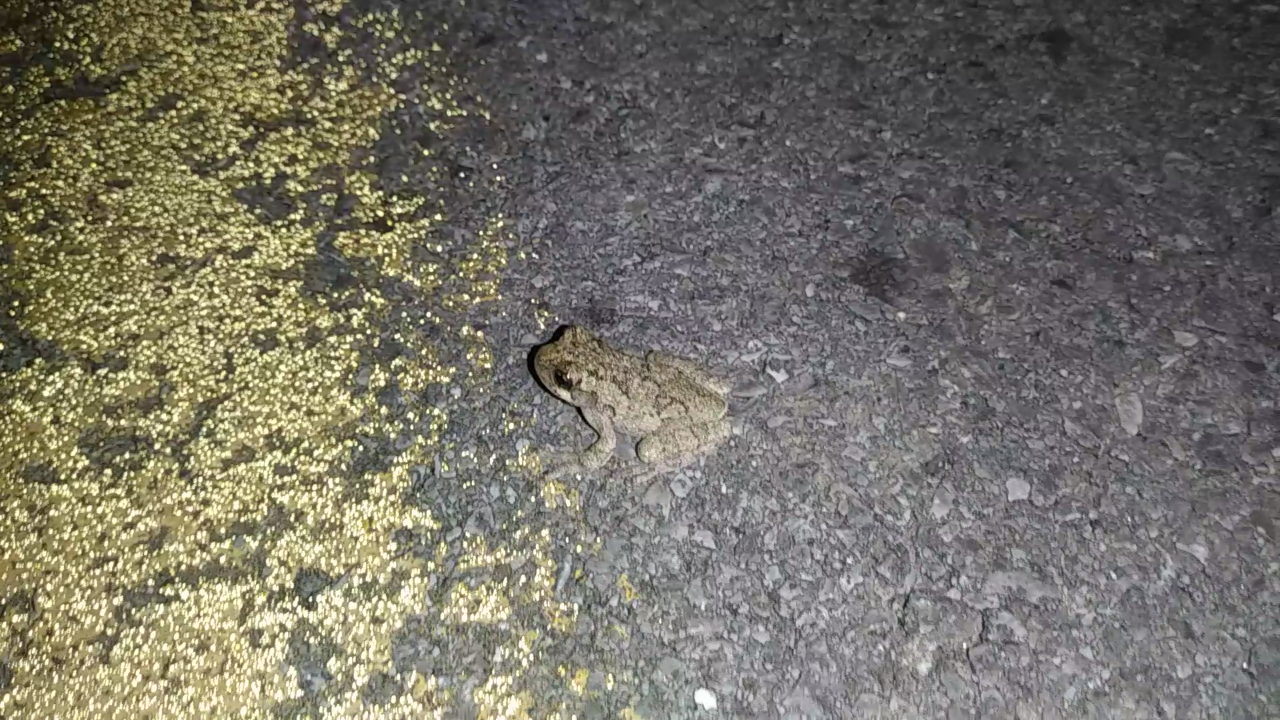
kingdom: Animalia
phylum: Chordata
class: Amphibia
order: Anura
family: Hylidae
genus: Dryophytes
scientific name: Dryophytes chrysoscelis
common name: Cope's gray treefrog
